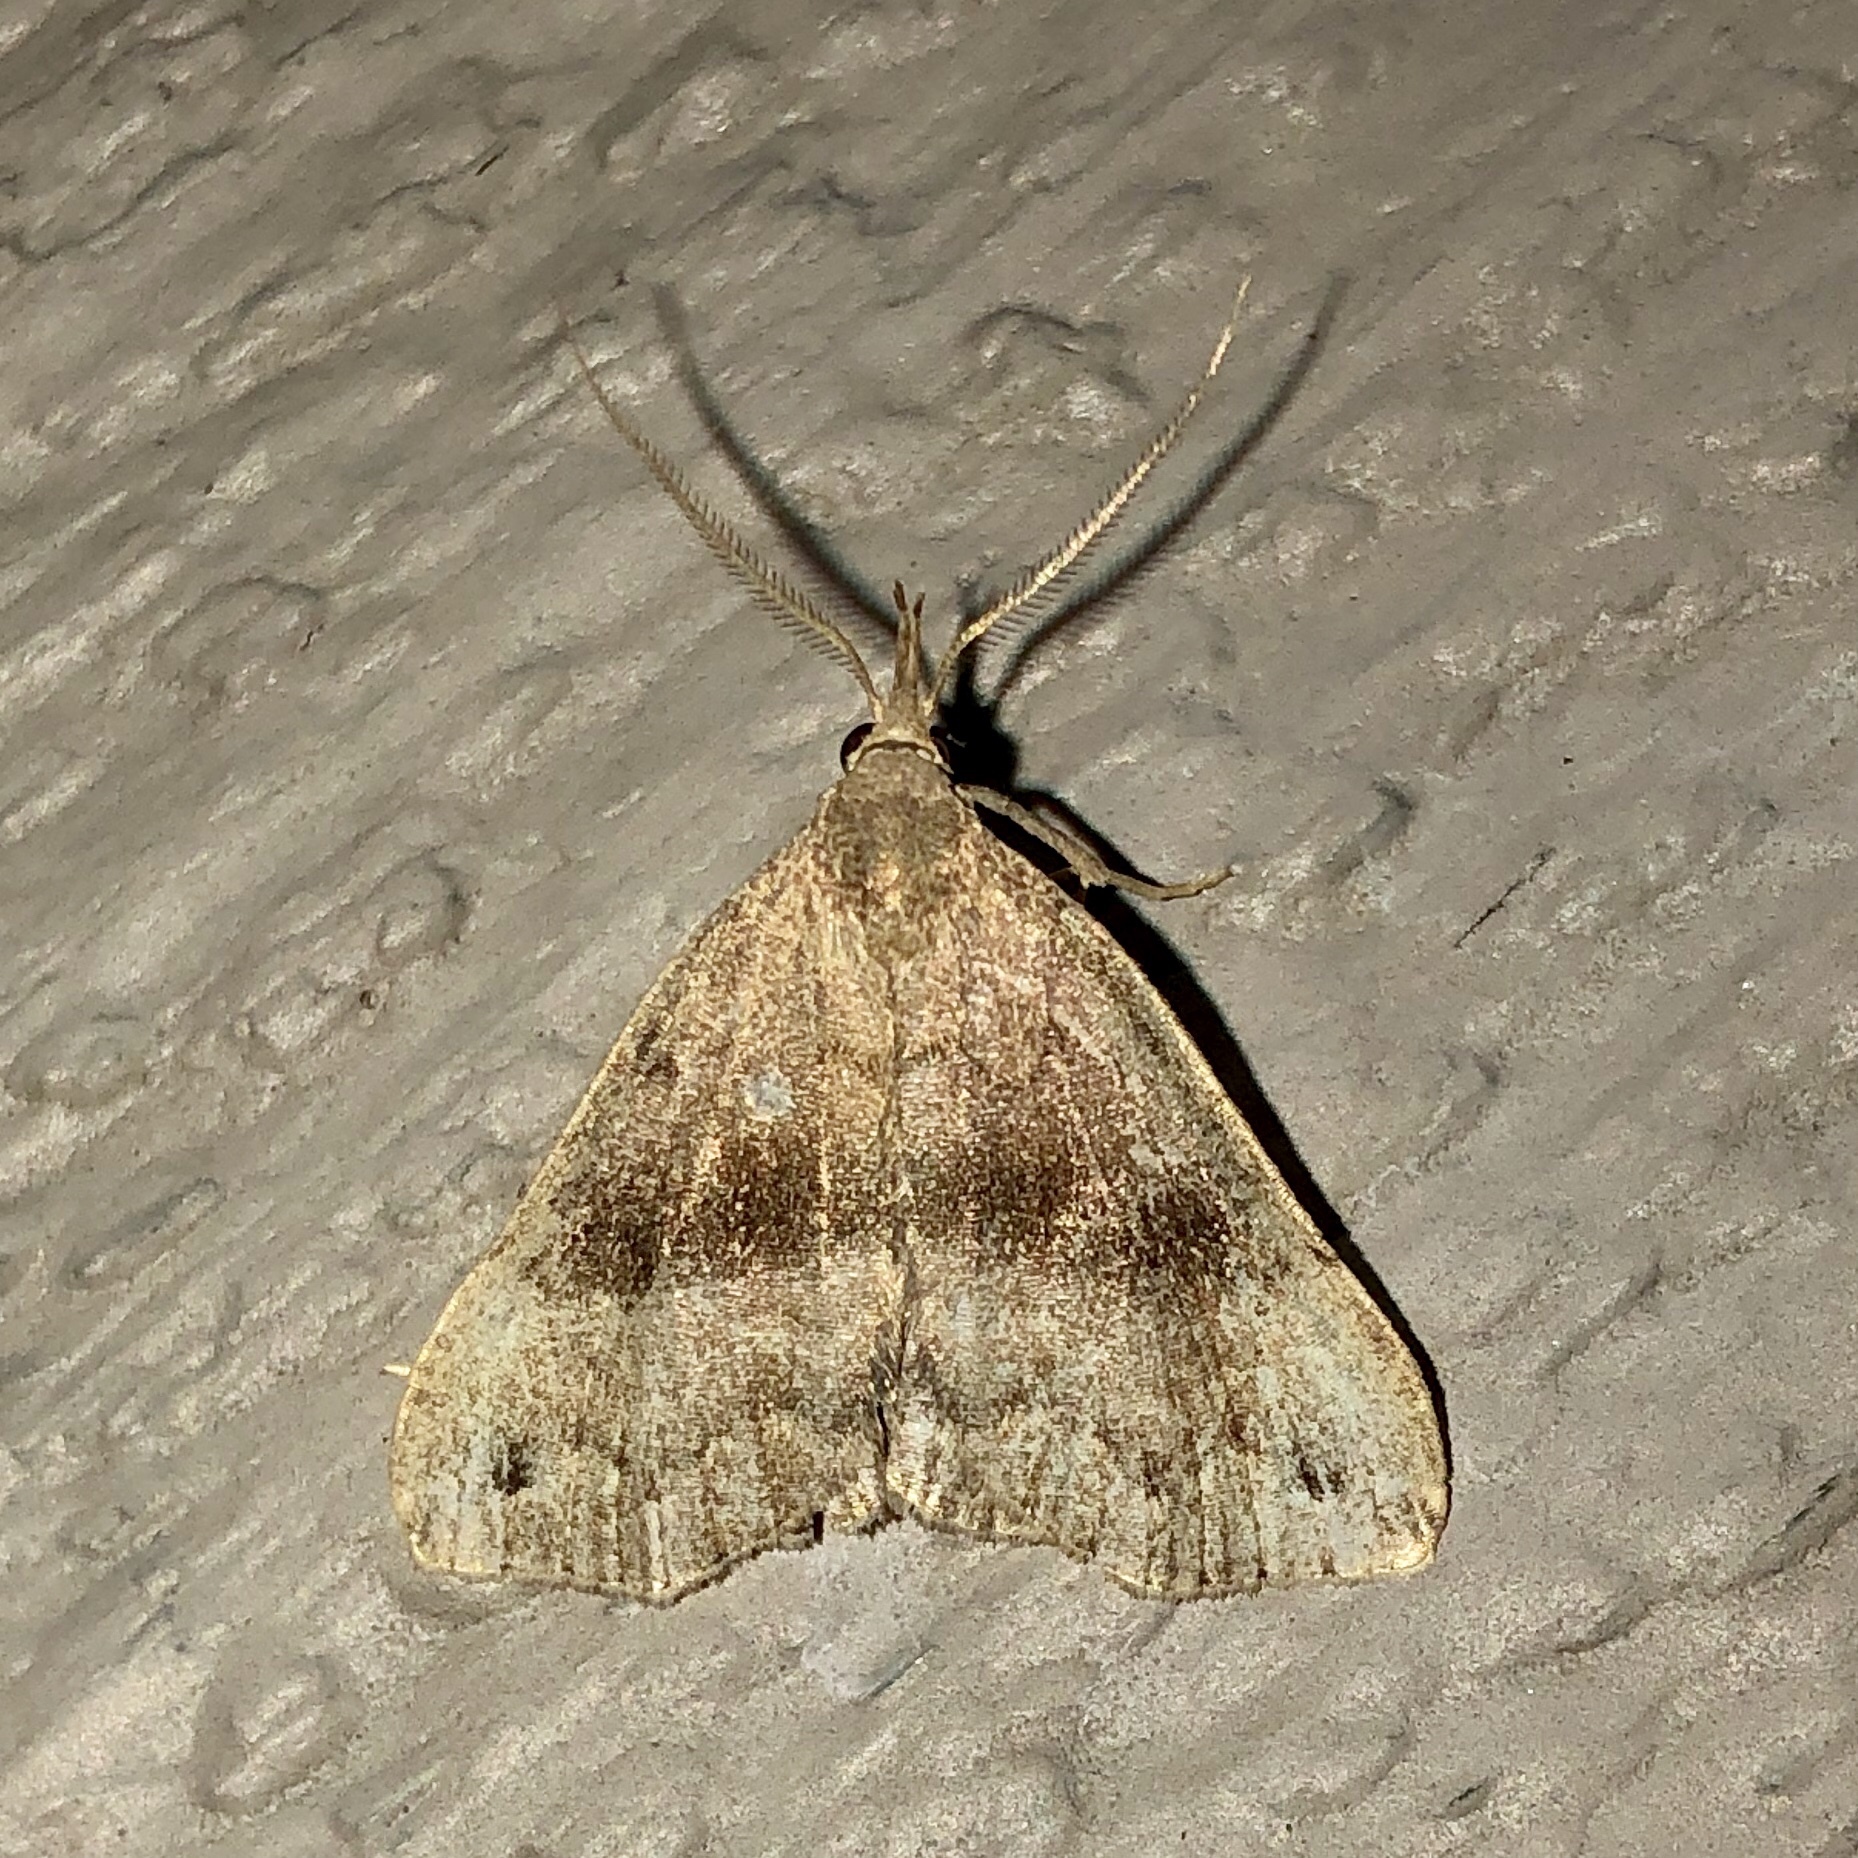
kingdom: Animalia
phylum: Arthropoda
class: Insecta
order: Lepidoptera
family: Erebidae
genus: Phalaenostola
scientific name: Phalaenostola eumelusalis
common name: Dark phalaenostola moth
